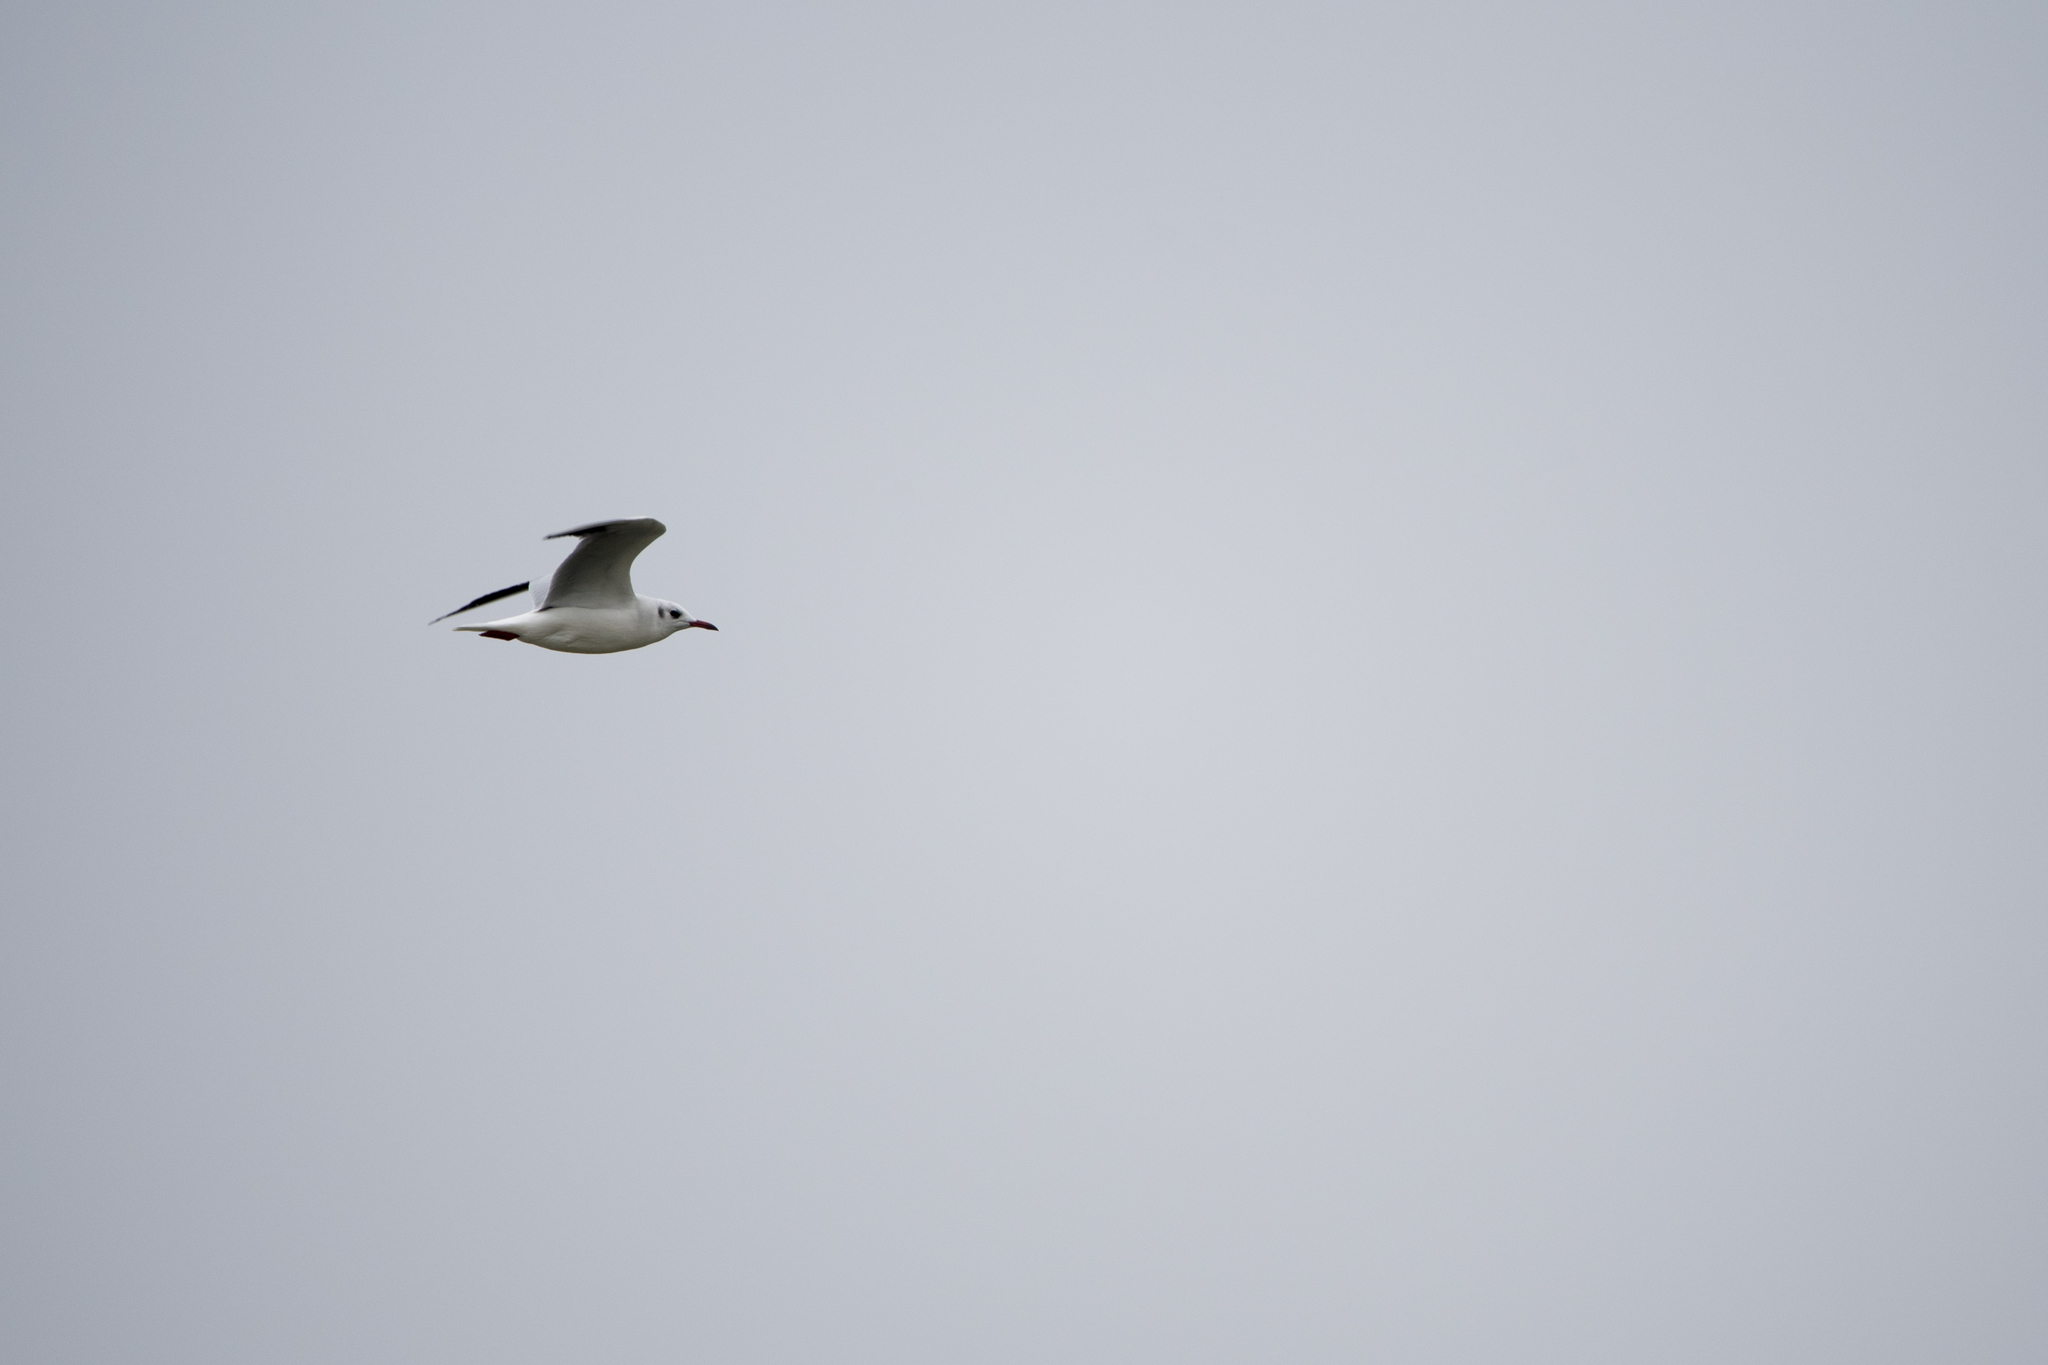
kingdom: Animalia
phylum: Chordata
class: Aves
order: Charadriiformes
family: Laridae
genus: Chroicocephalus
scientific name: Chroicocephalus ridibundus
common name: Black-headed gull
